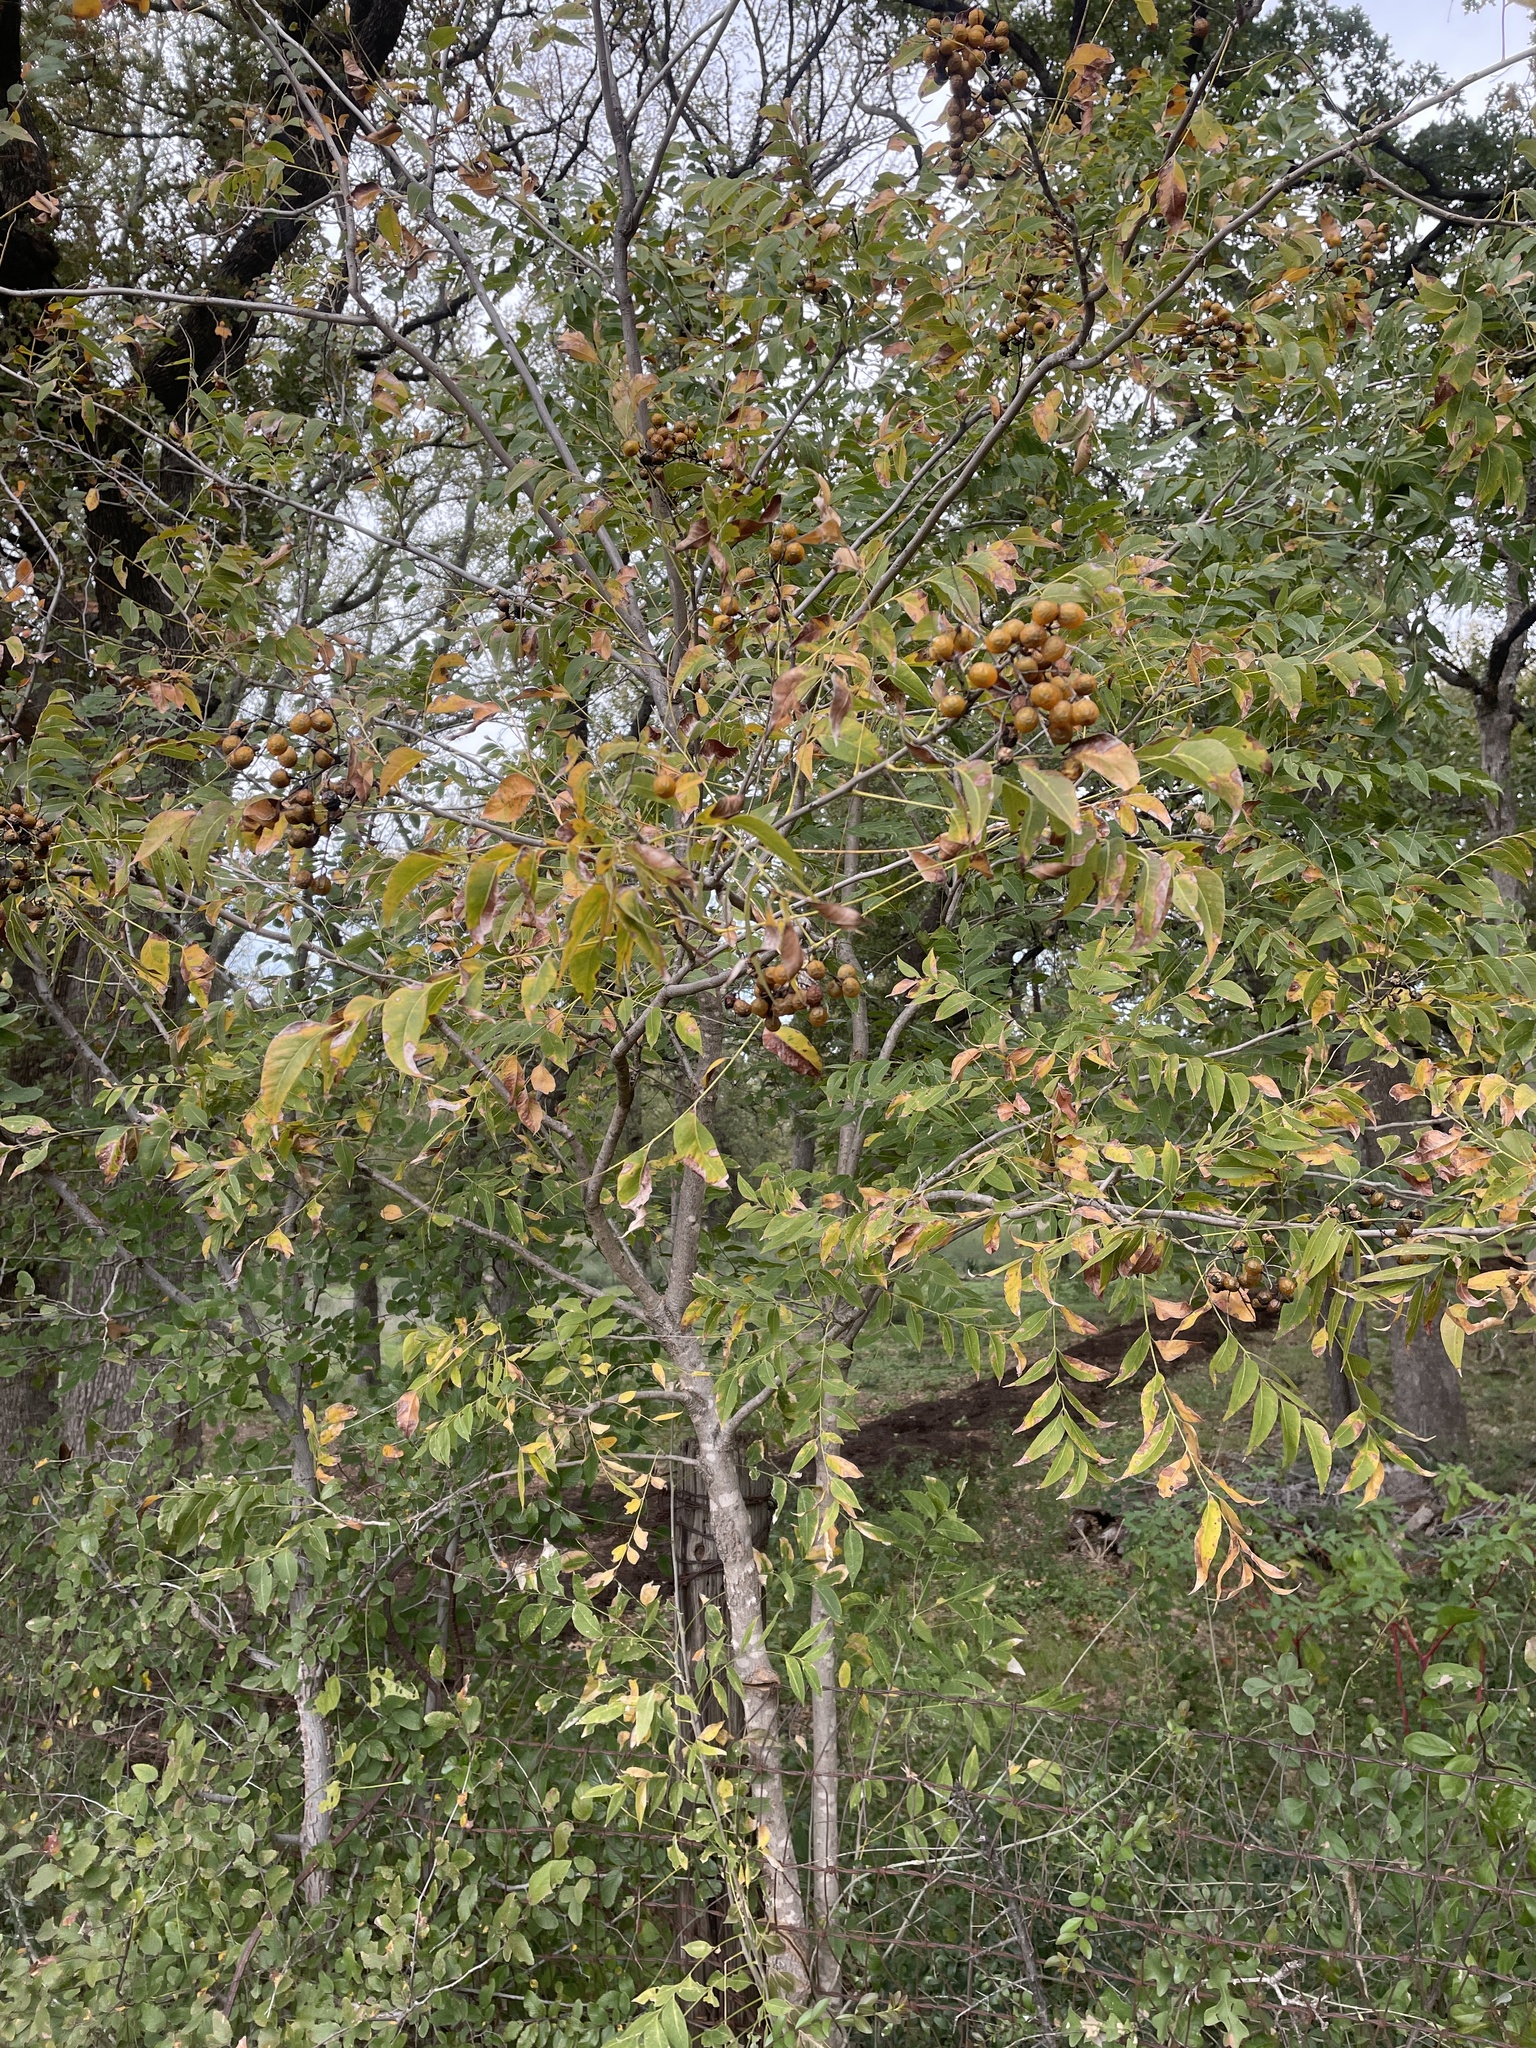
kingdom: Plantae
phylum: Tracheophyta
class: Magnoliopsida
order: Sapindales
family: Sapindaceae
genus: Sapindus
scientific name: Sapindus drummondii
